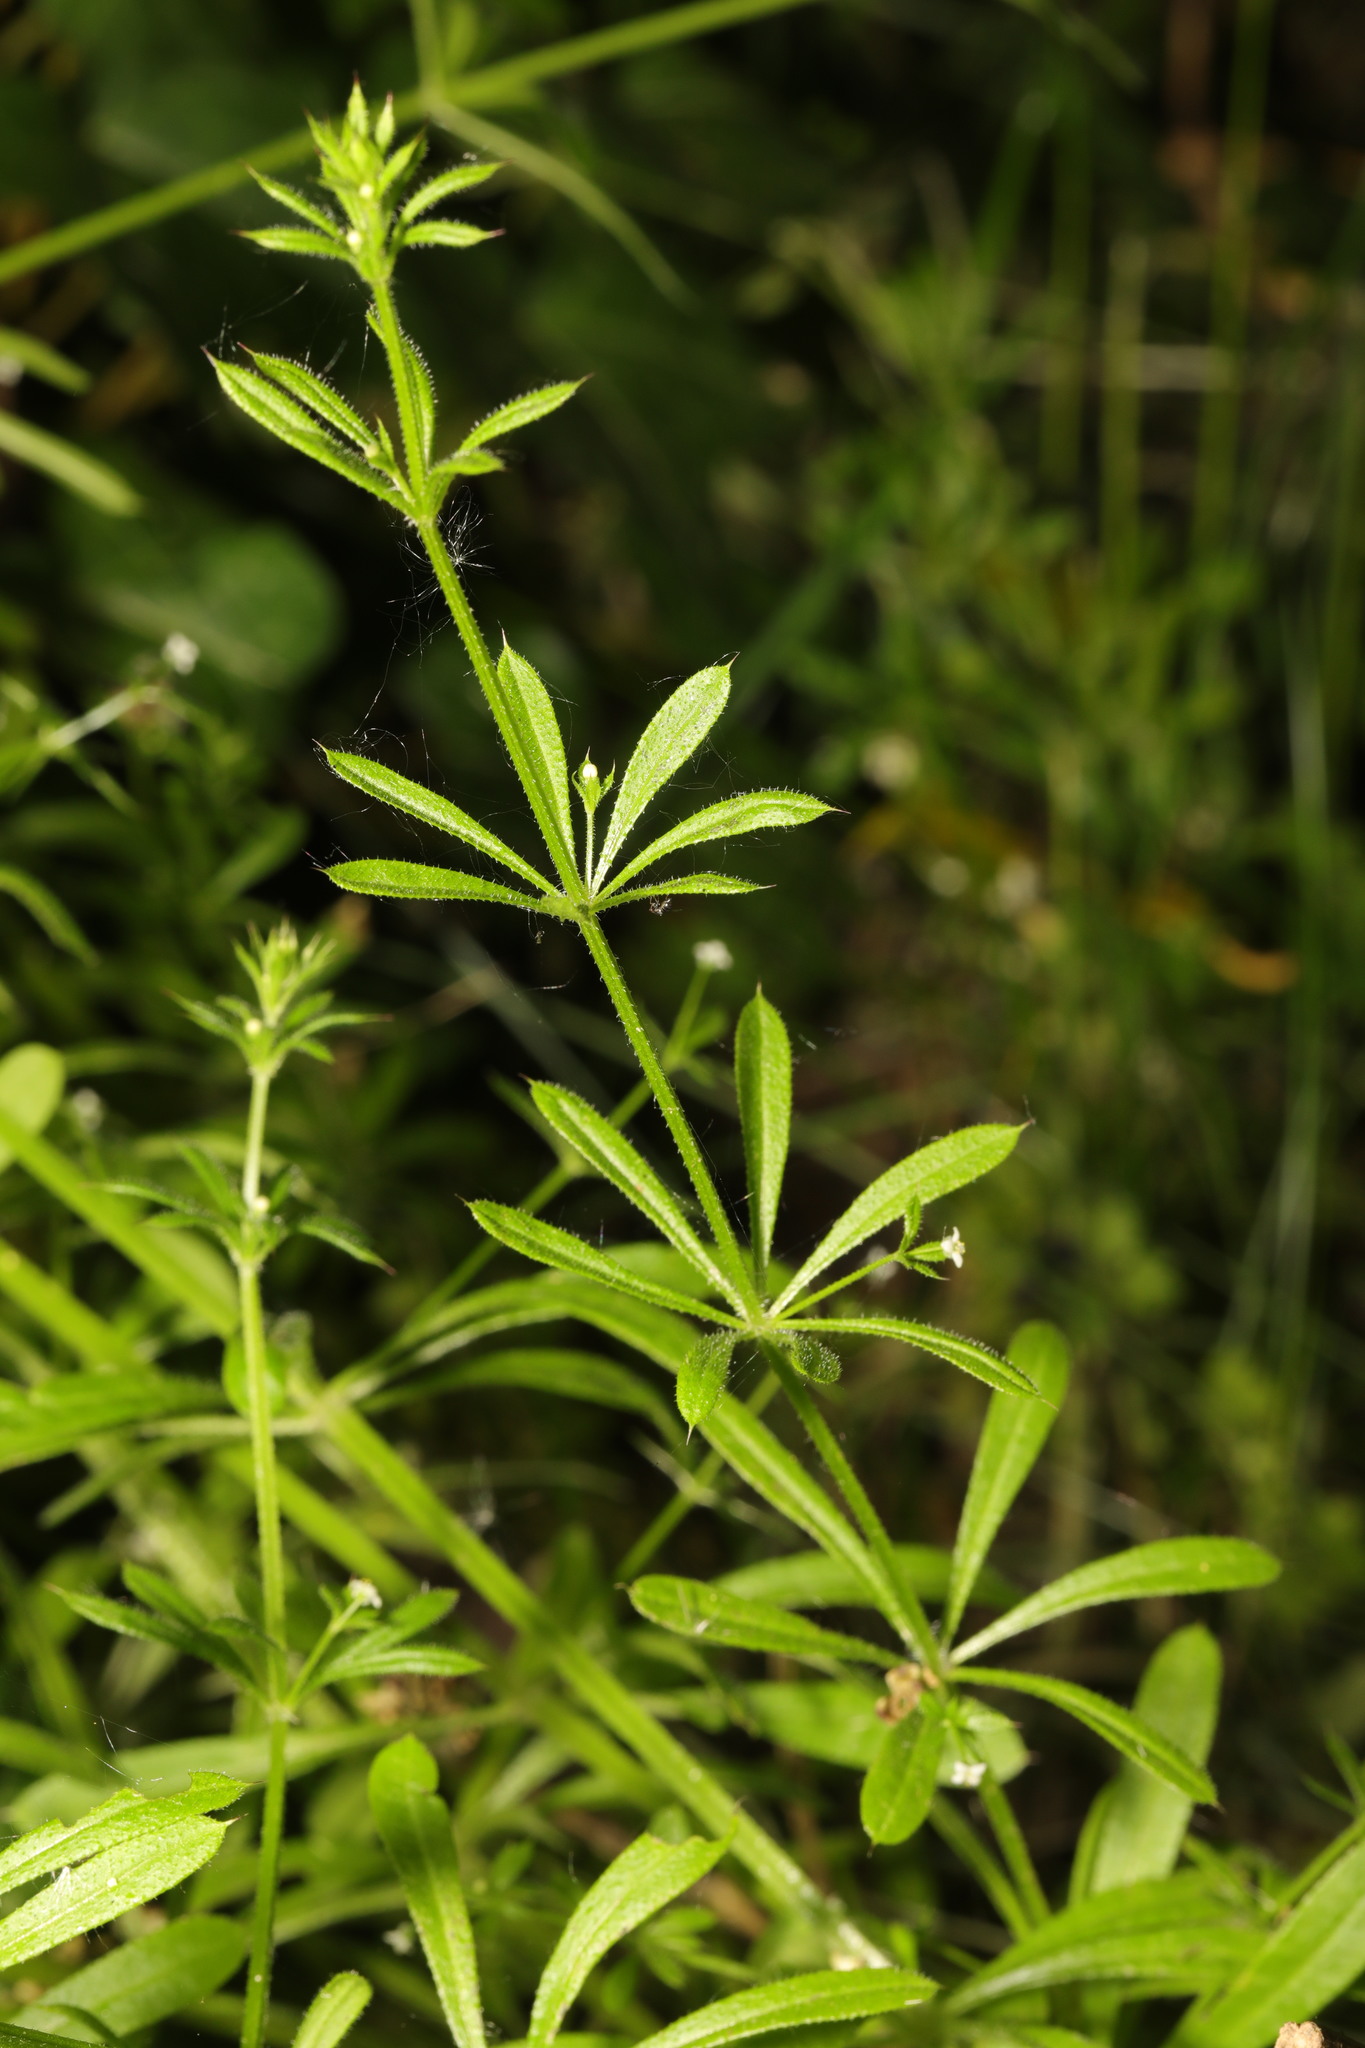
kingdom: Plantae
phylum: Tracheophyta
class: Magnoliopsida
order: Gentianales
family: Rubiaceae
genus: Galium
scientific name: Galium aparine
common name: Cleavers
